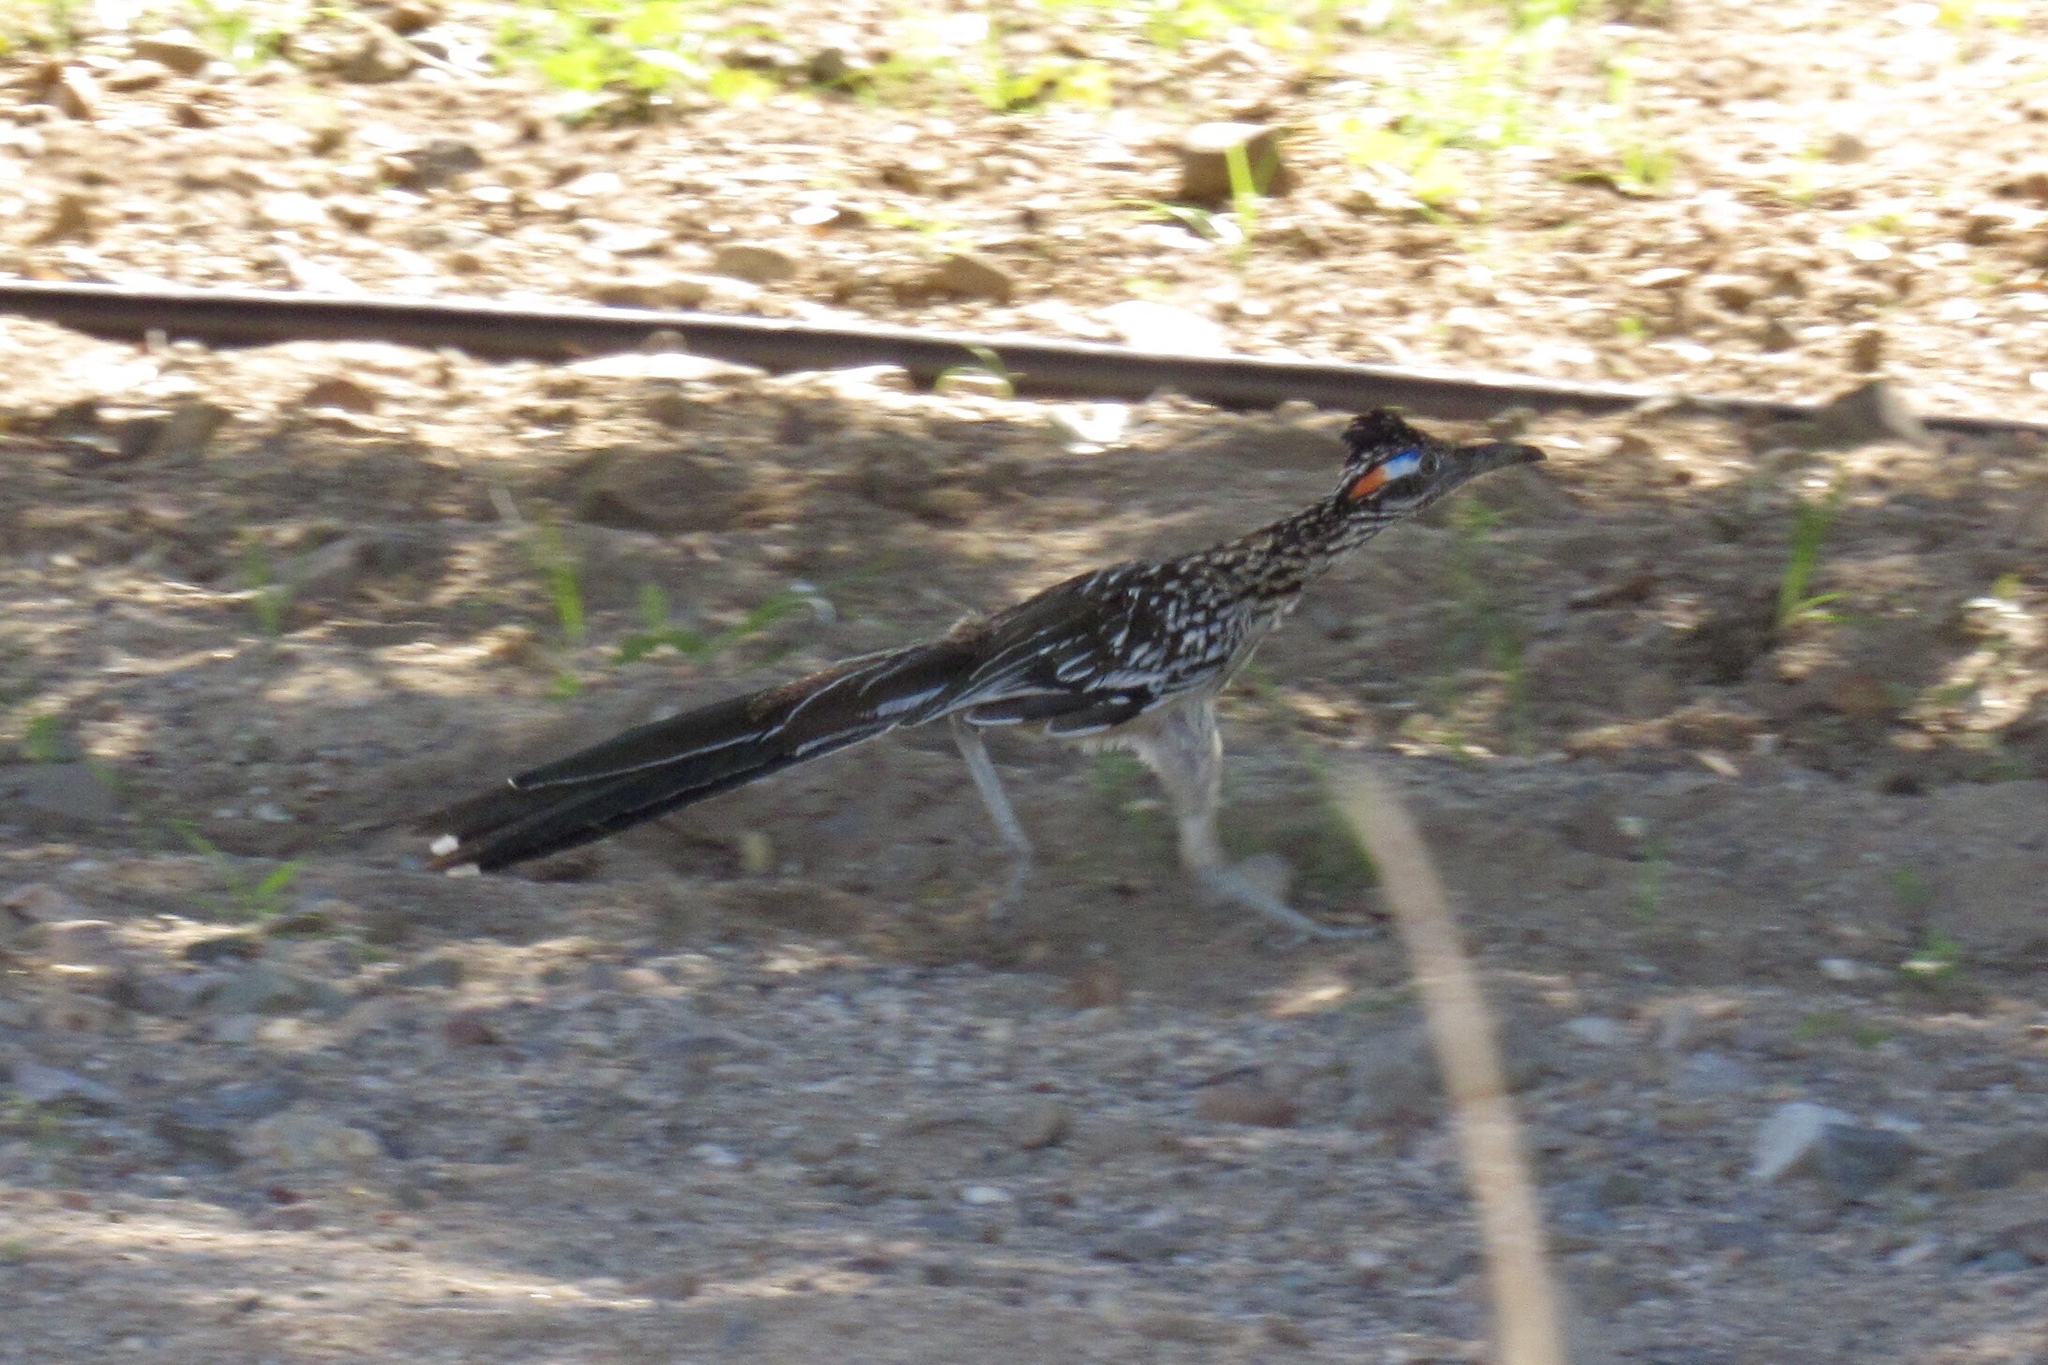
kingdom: Animalia
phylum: Chordata
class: Aves
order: Cuculiformes
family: Cuculidae
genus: Geococcyx
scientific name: Geococcyx californianus
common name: Greater roadrunner
